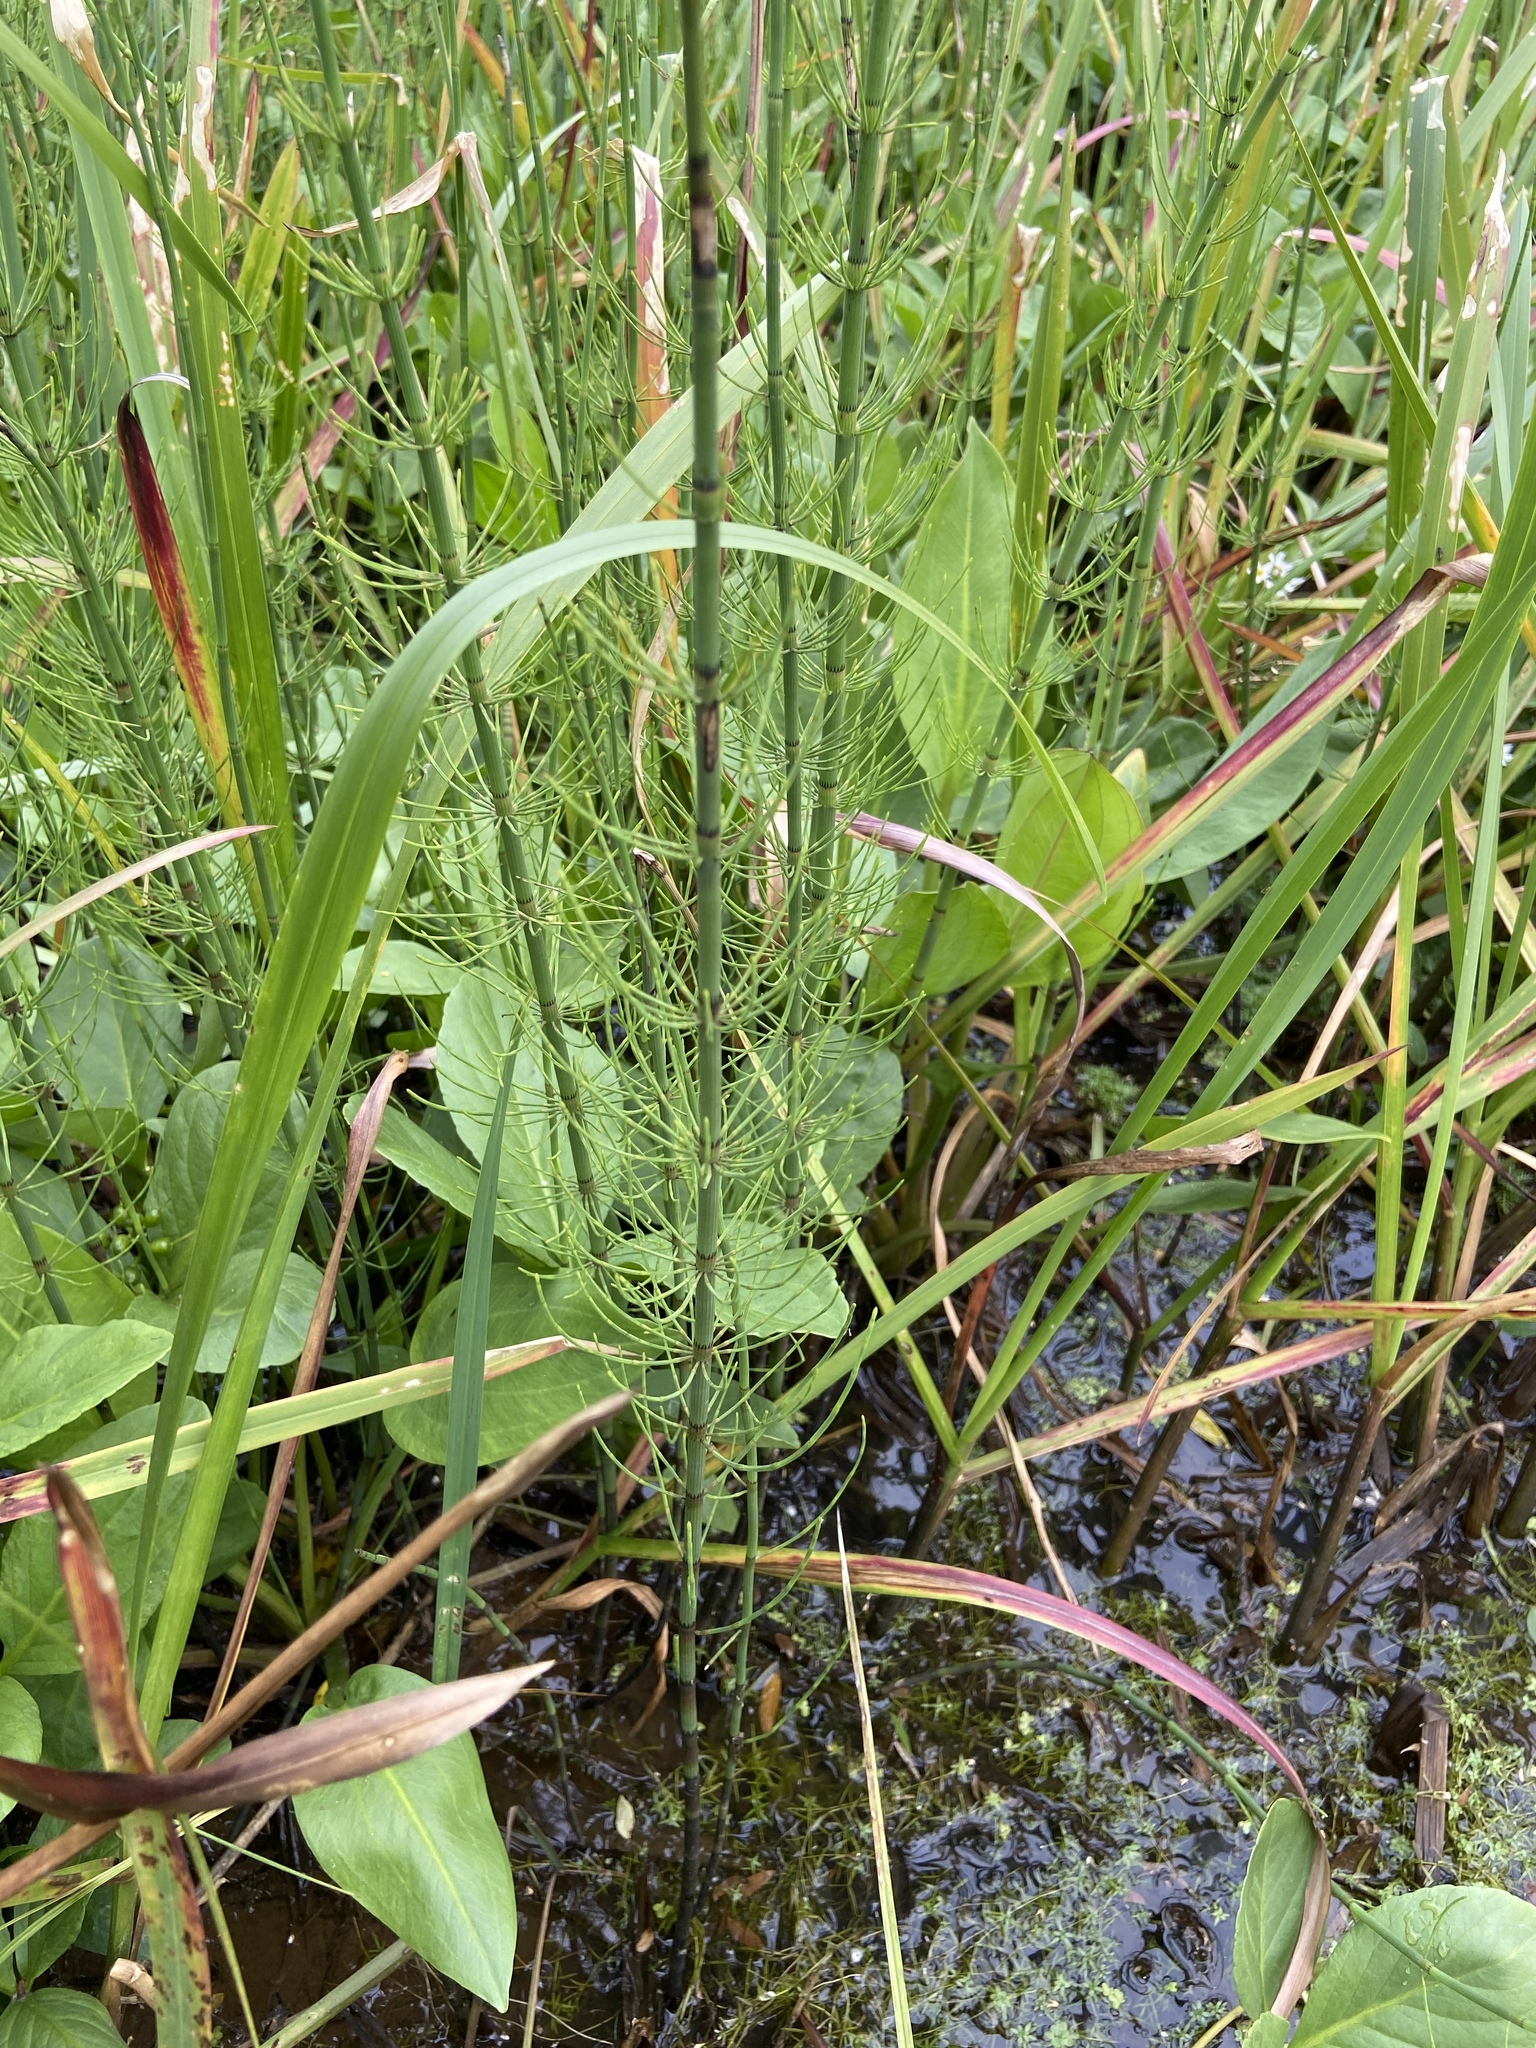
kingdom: Plantae
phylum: Tracheophyta
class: Polypodiopsida
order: Equisetales
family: Equisetaceae
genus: Equisetum
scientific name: Equisetum fluviatile
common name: Water horsetail
